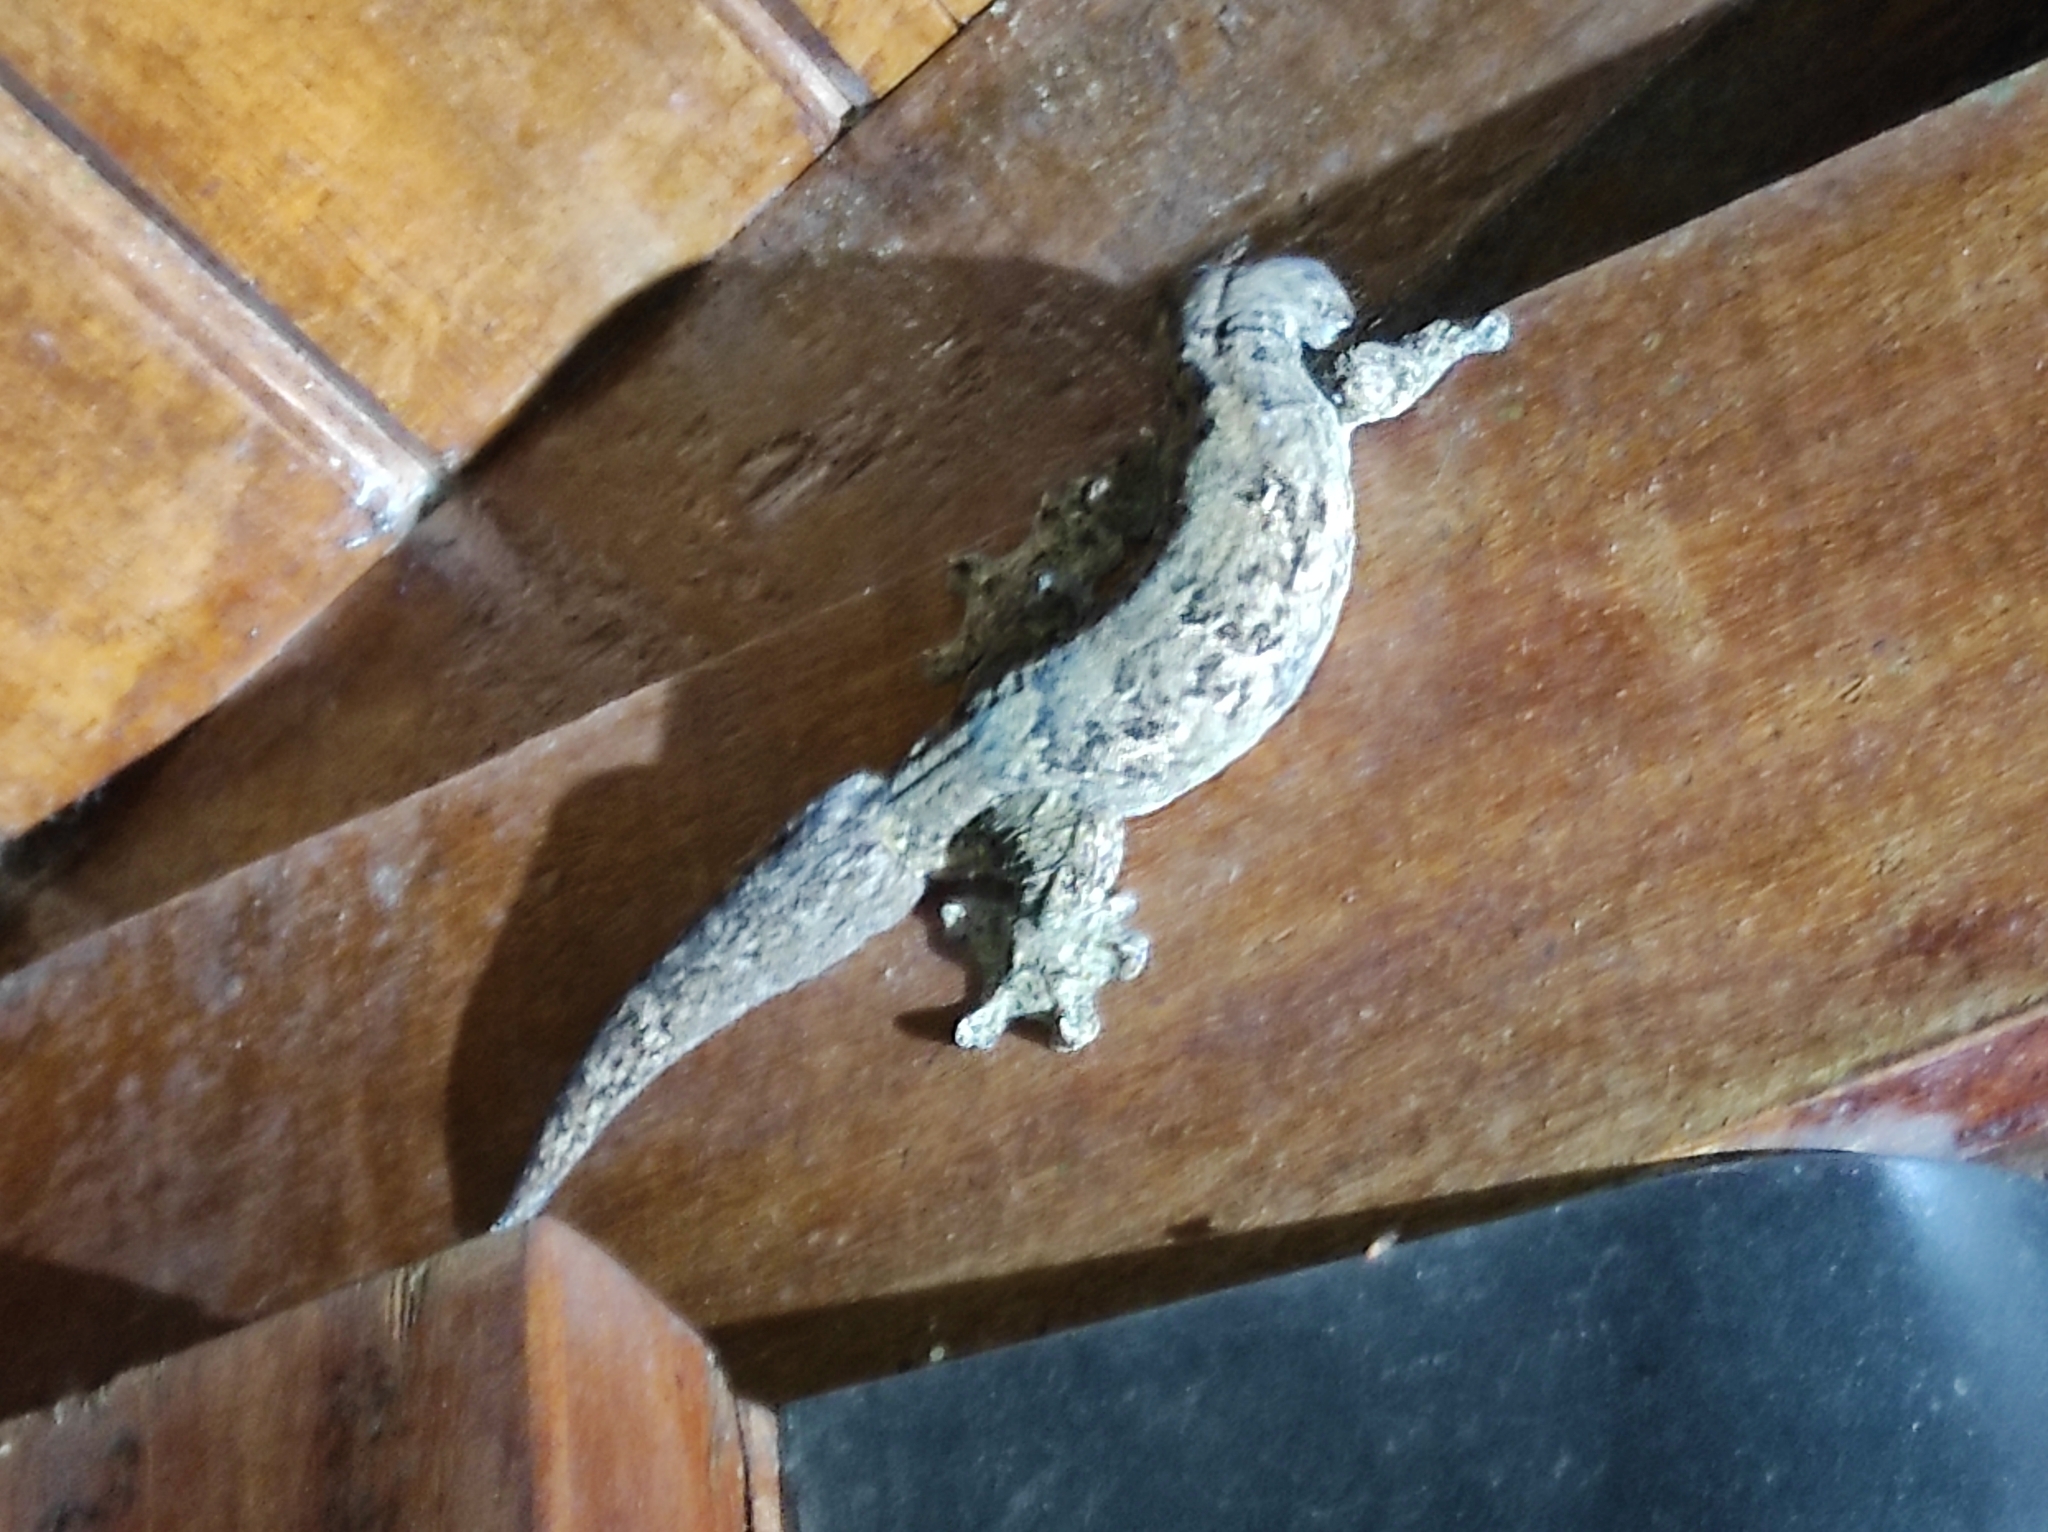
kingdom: Animalia
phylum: Chordata
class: Squamata
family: Phyllodactylidae
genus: Thecadactylus
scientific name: Thecadactylus rapicauda
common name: Turnip-tailed gecko
